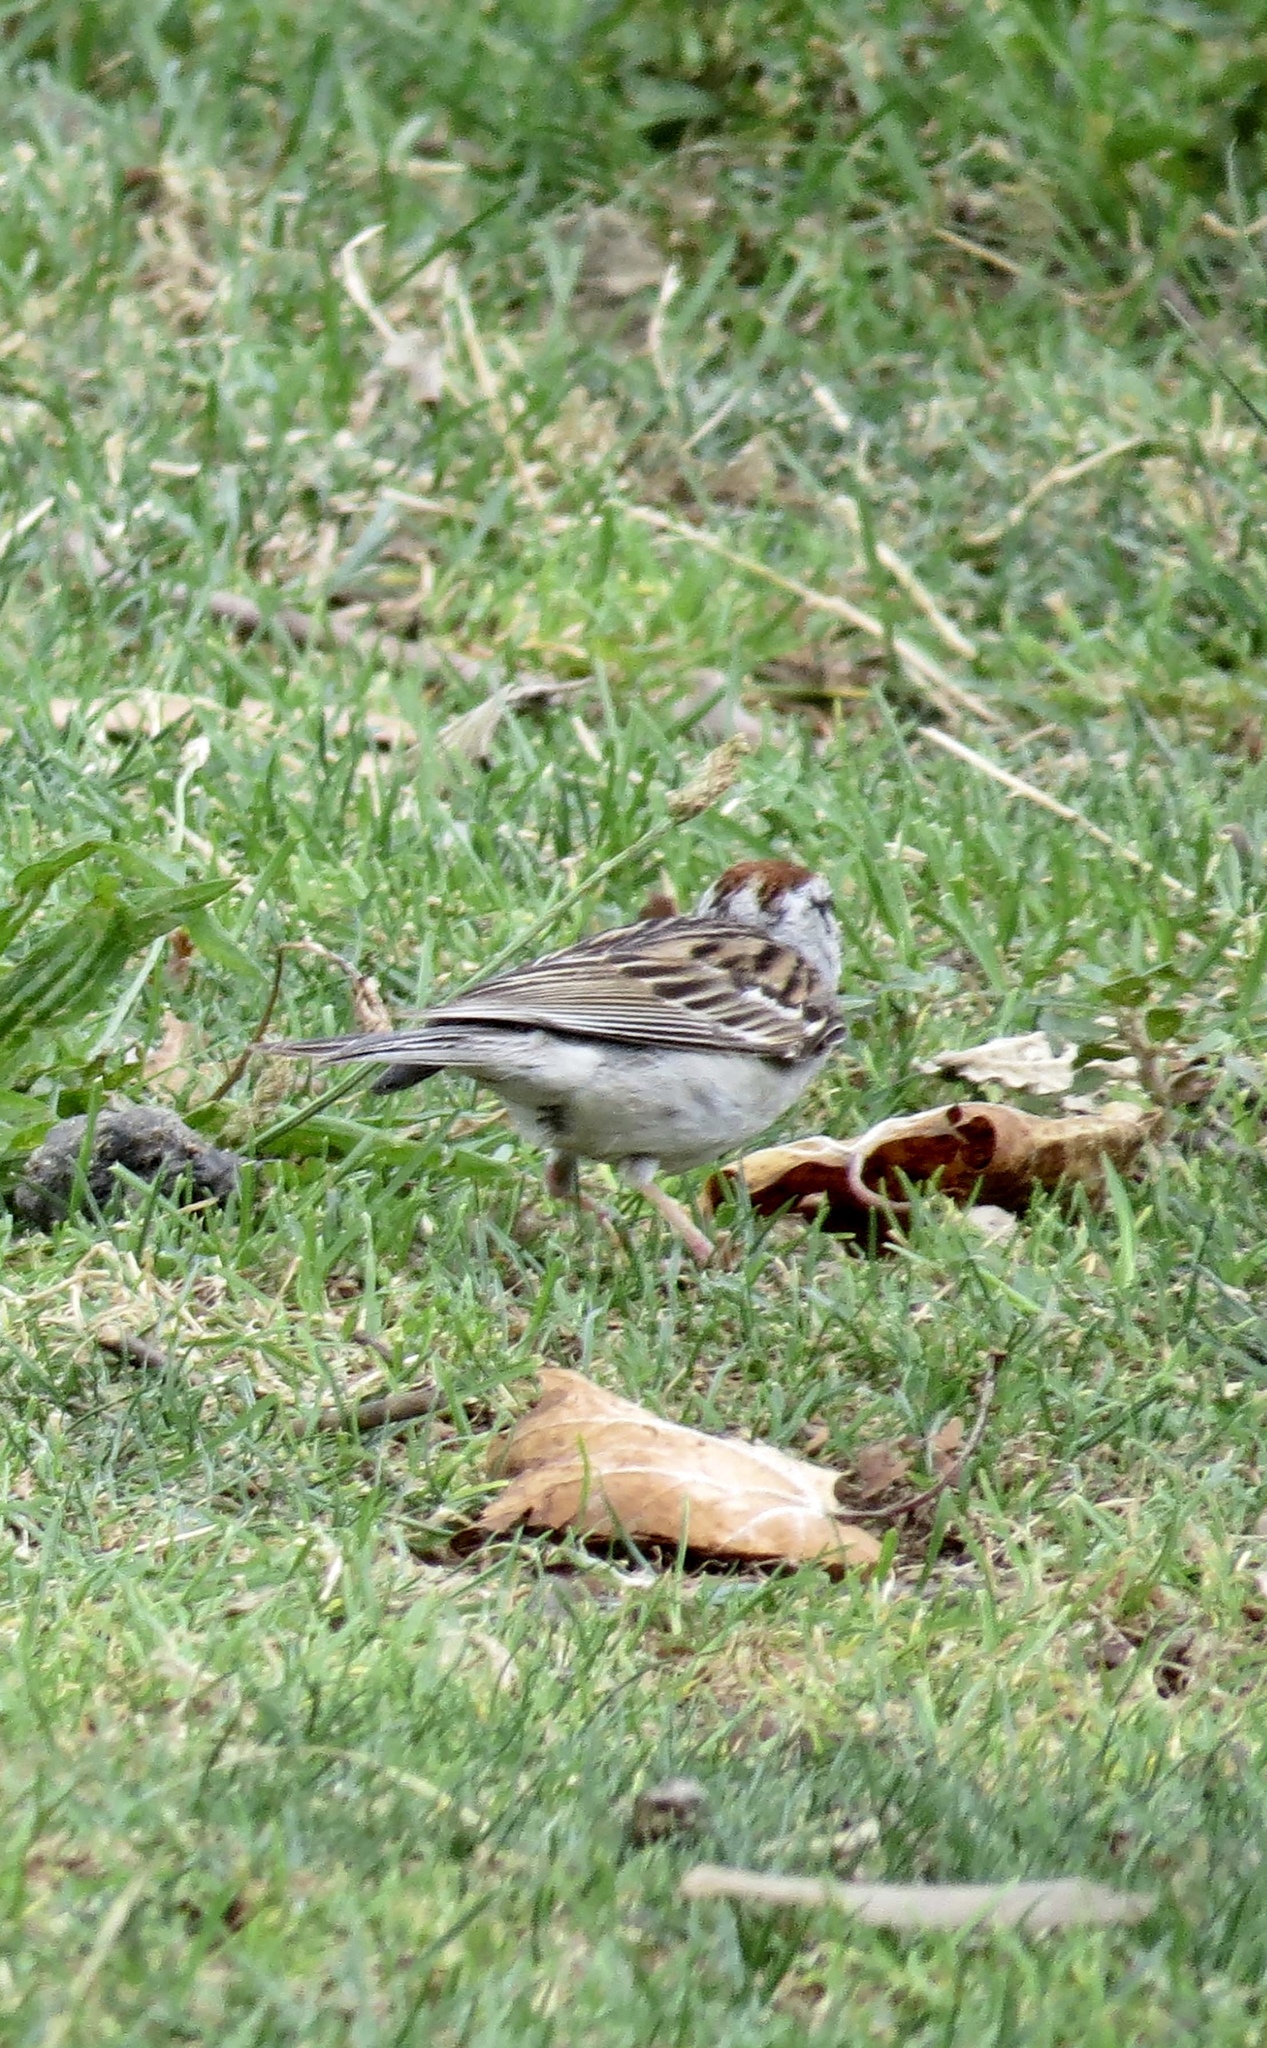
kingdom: Animalia
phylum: Chordata
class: Aves
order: Passeriformes
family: Passerellidae
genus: Spizella
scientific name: Spizella passerina
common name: Chipping sparrow
